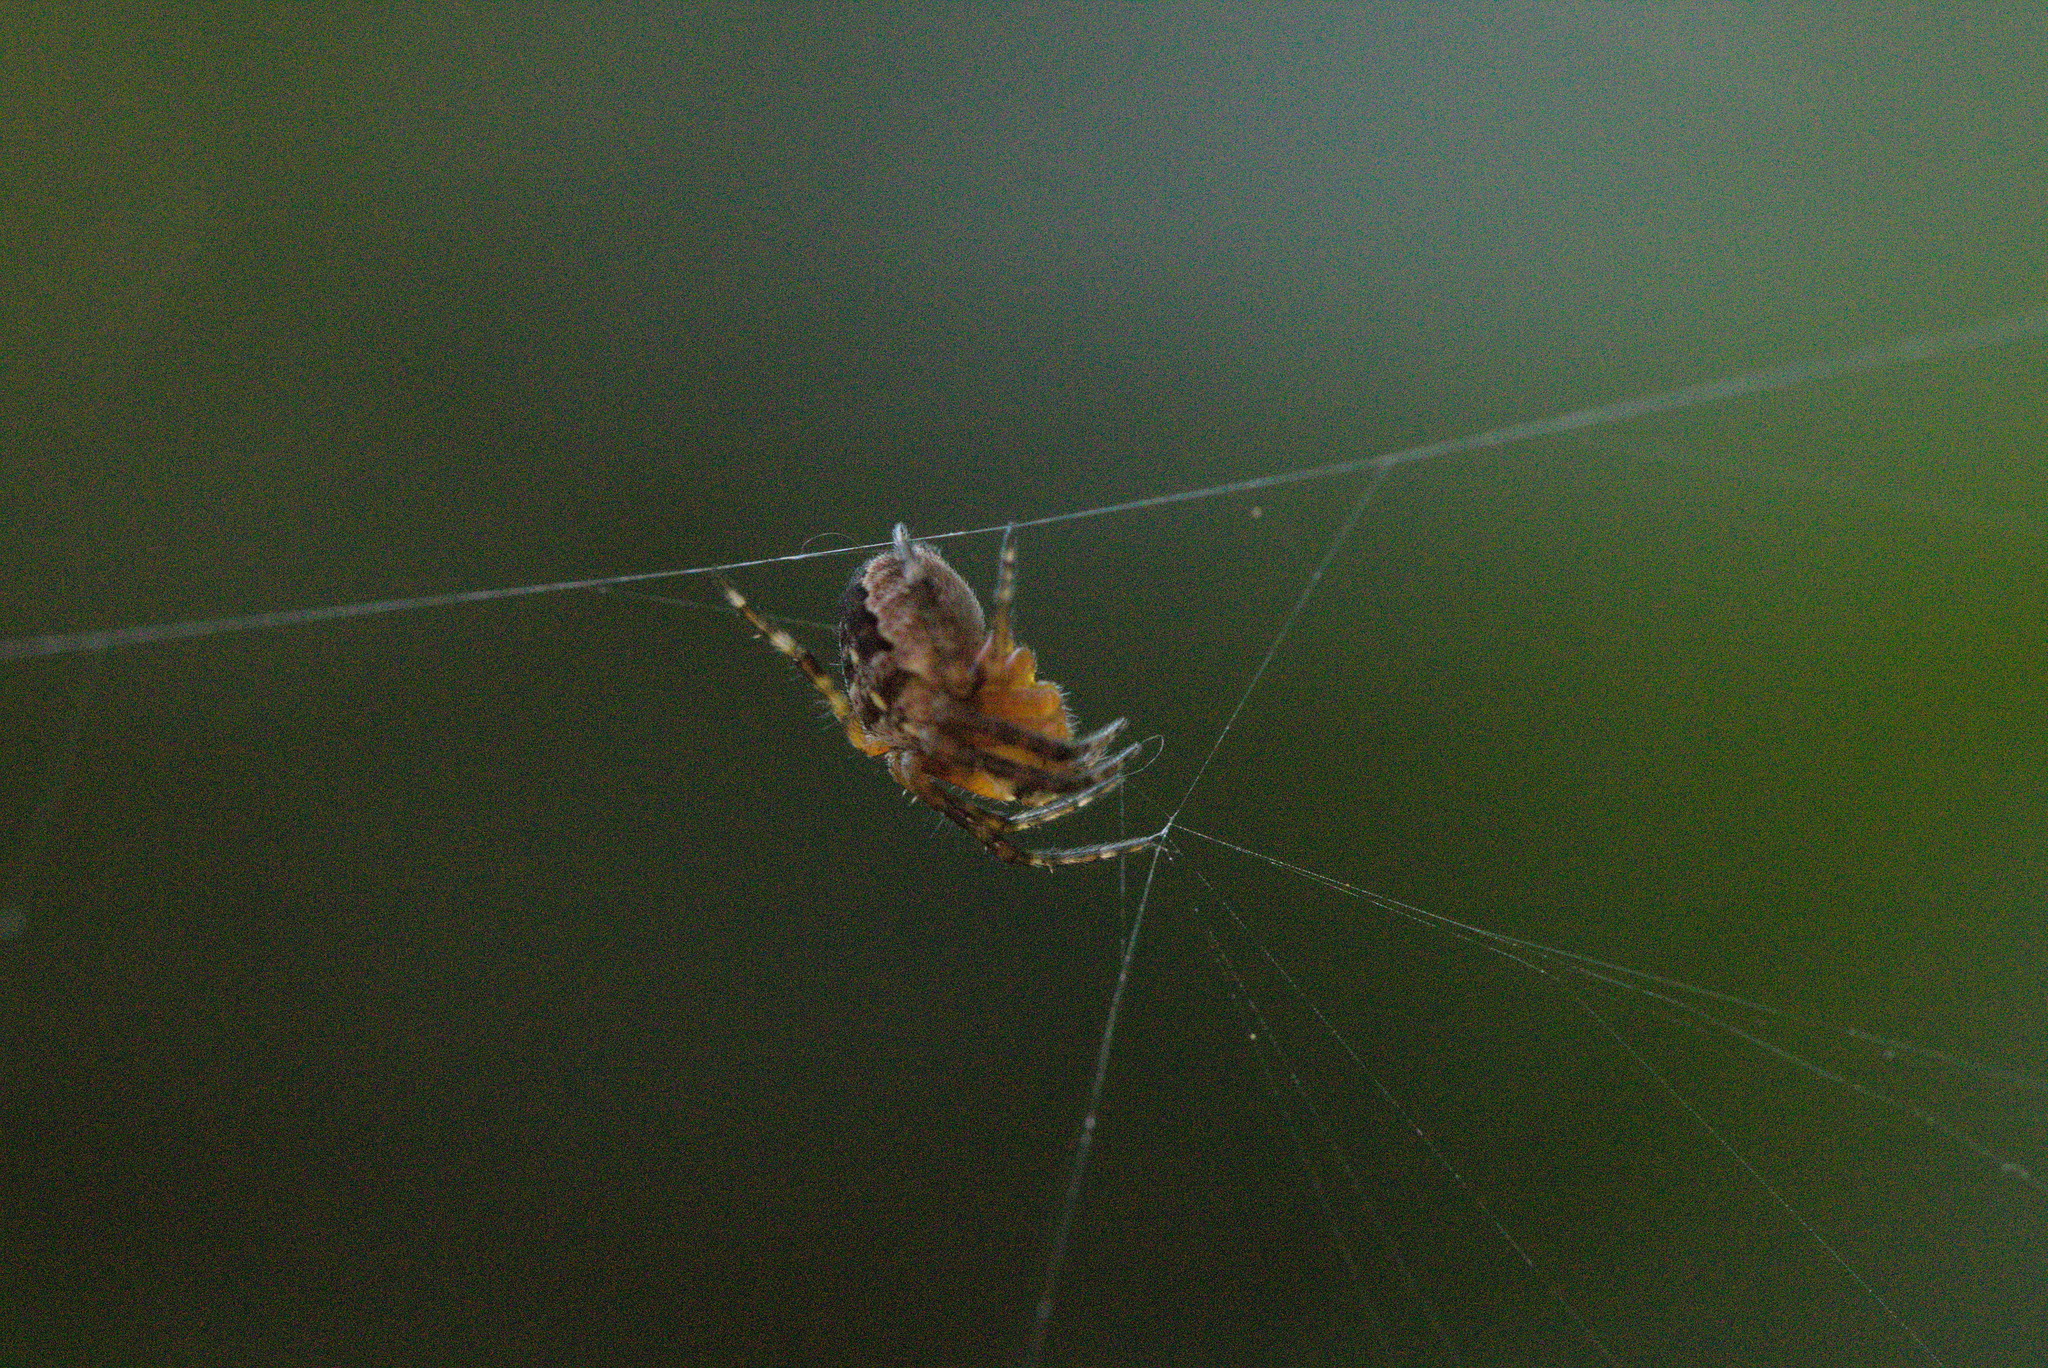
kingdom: Animalia
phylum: Arthropoda
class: Arachnida
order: Araneae
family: Araneidae
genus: Araneus
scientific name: Araneus diadematus
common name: Cross orbweaver
